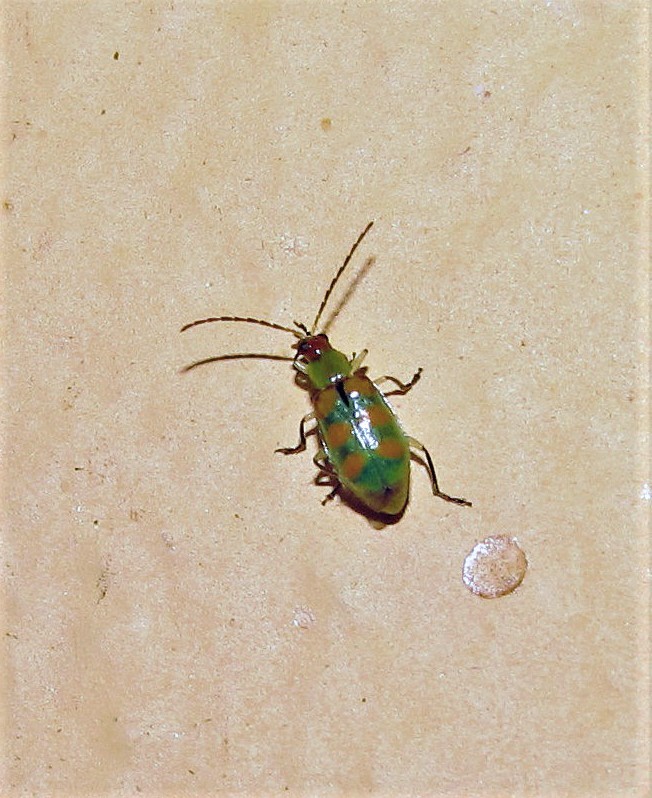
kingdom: Animalia
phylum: Arthropoda
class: Insecta
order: Coleoptera
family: Chrysomelidae
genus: Diabrotica
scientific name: Diabrotica speciosa
